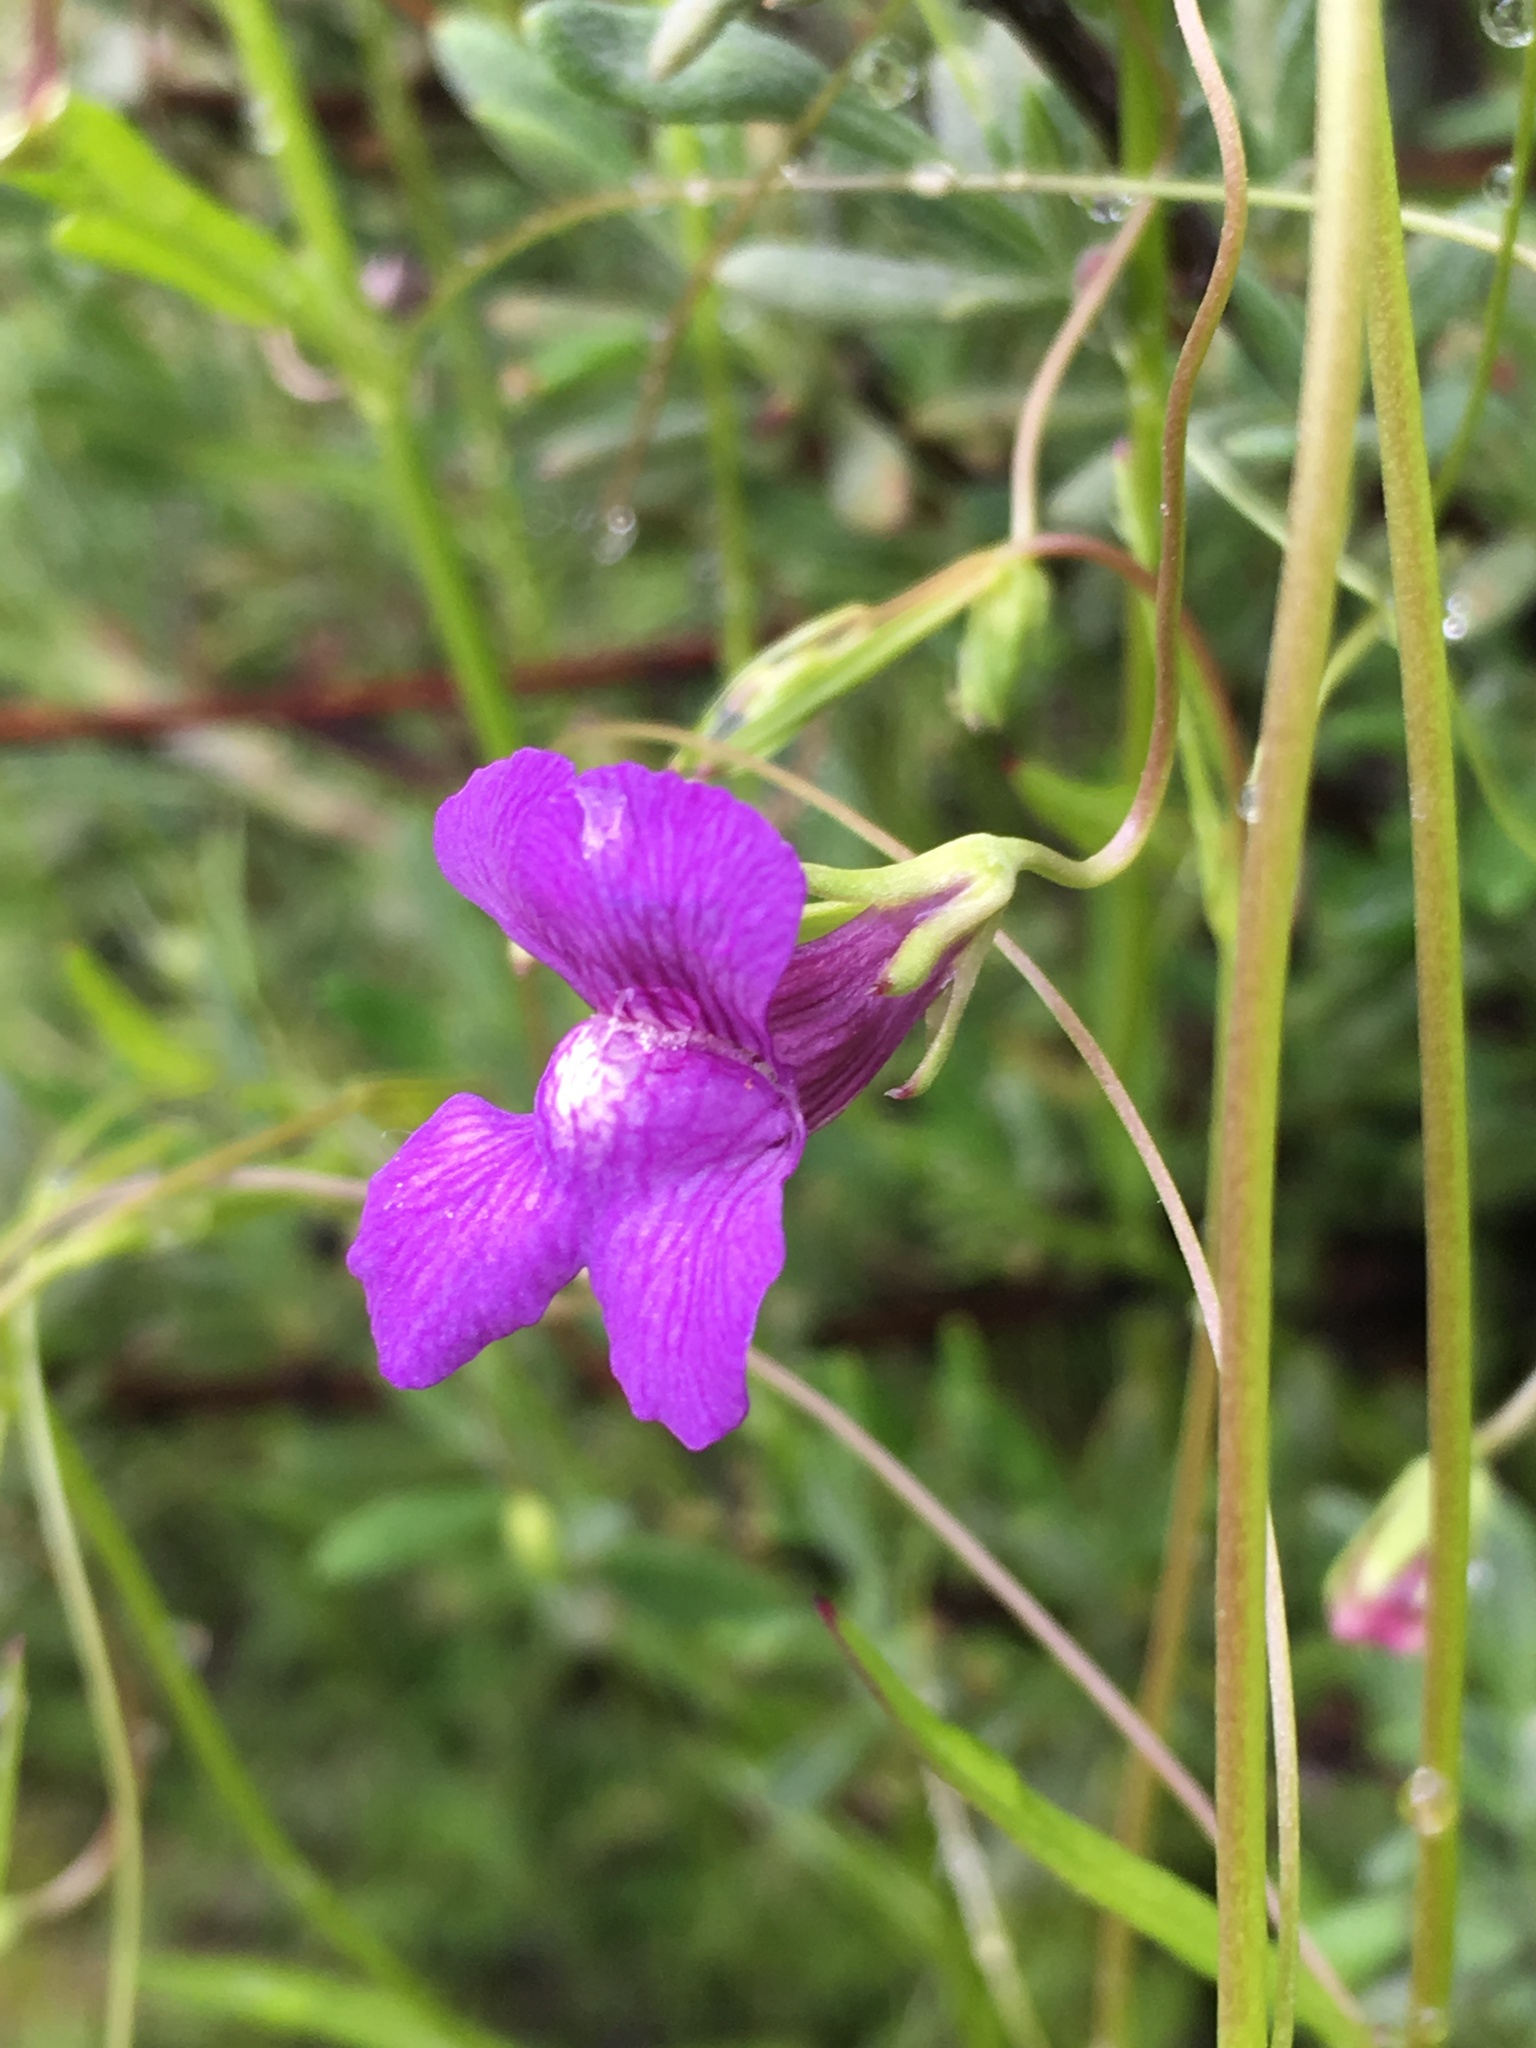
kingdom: Plantae
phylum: Tracheophyta
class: Magnoliopsida
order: Lamiales
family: Plantaginaceae
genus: Neogaerrhinum
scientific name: Neogaerrhinum strictum
